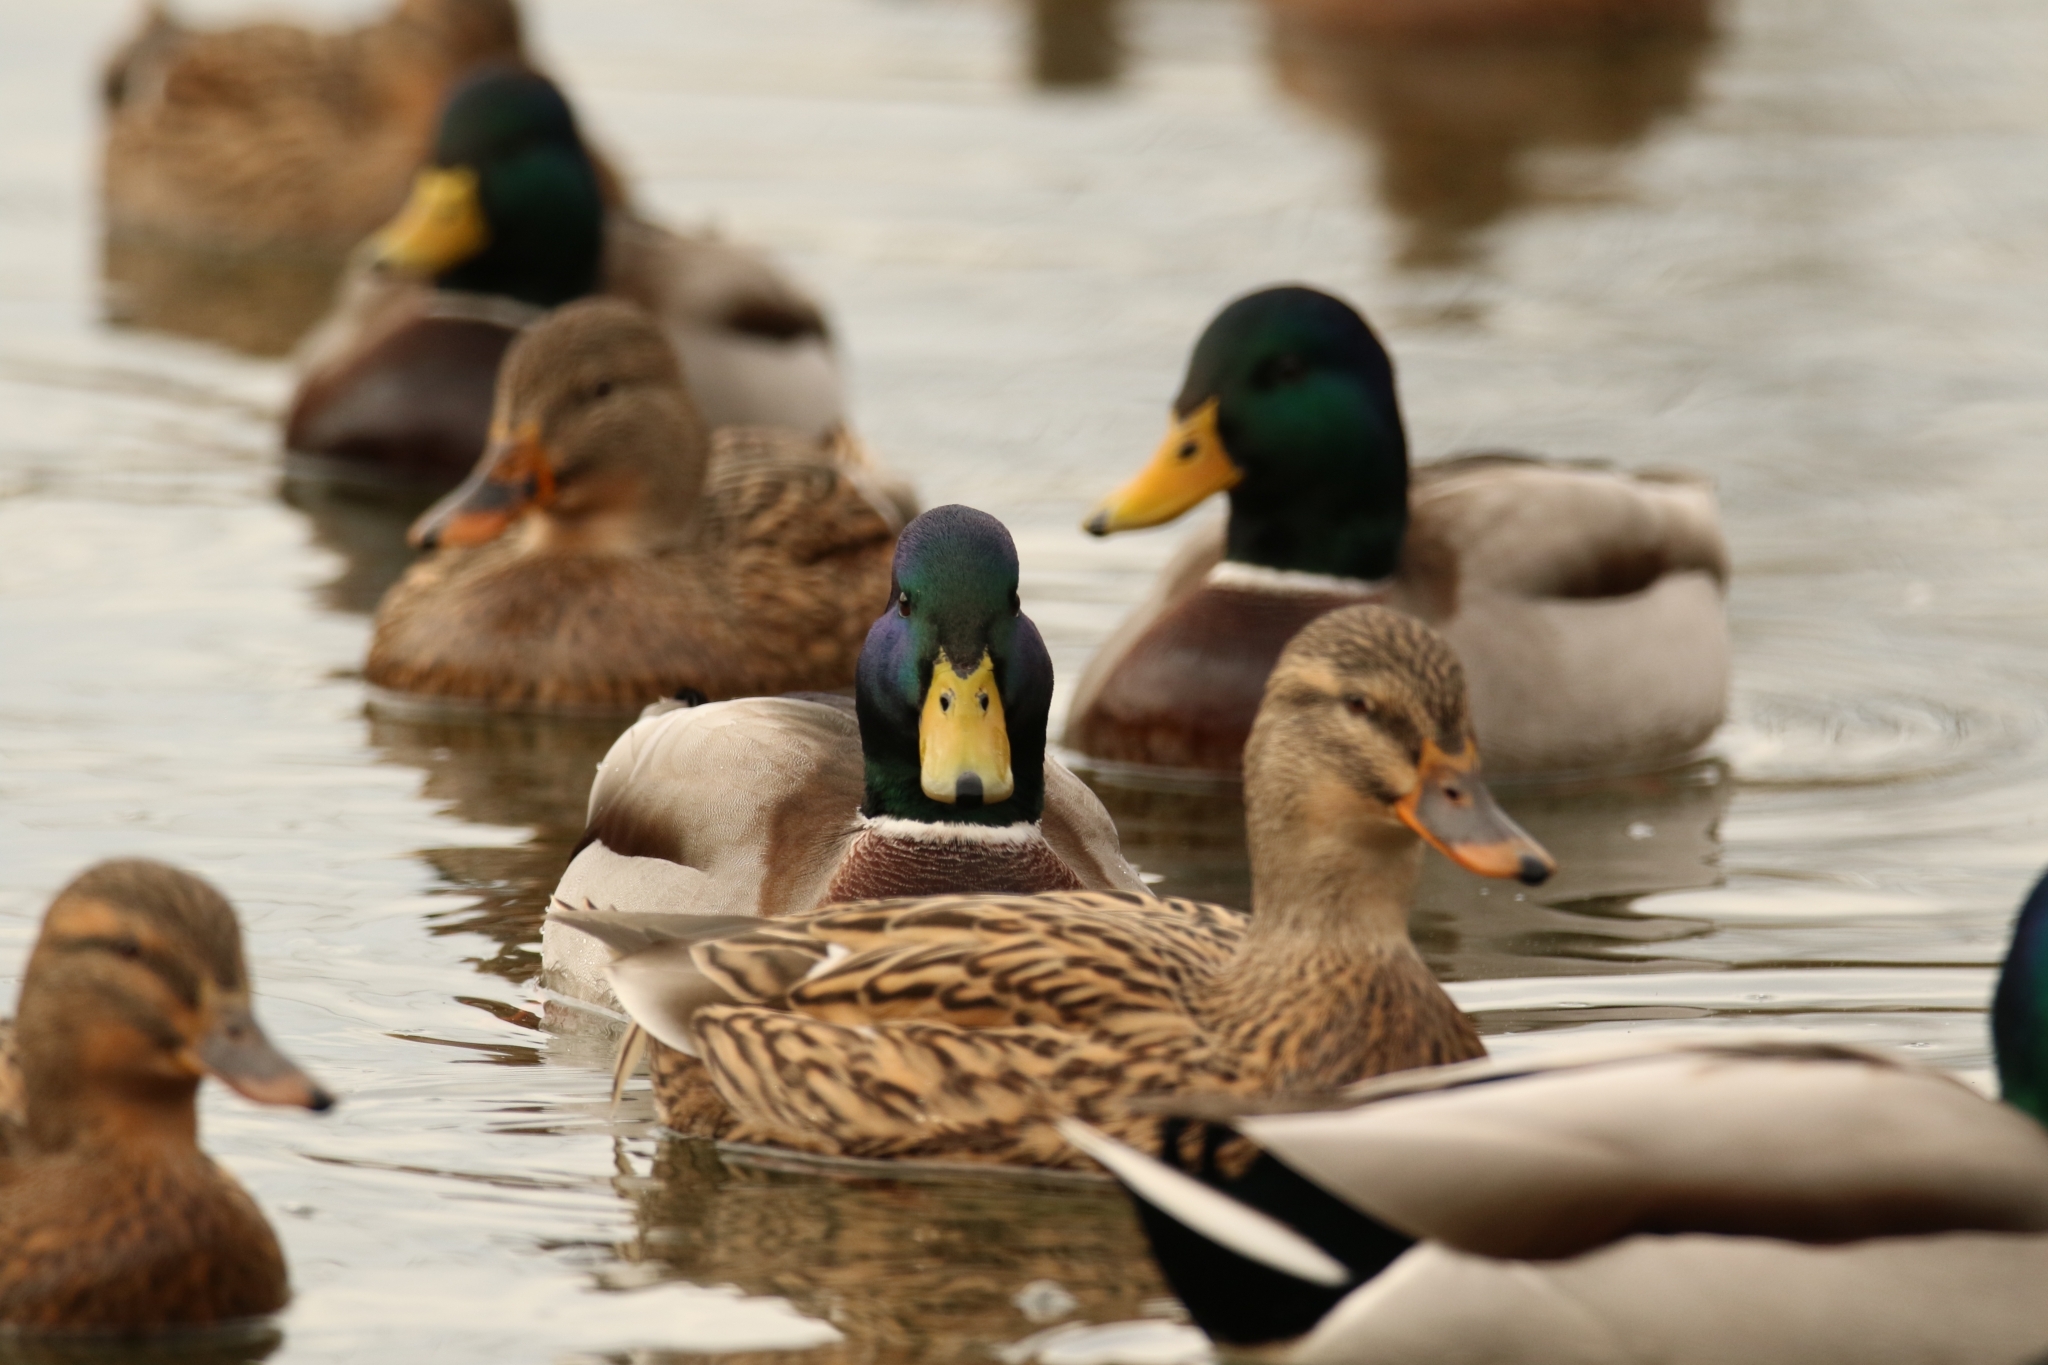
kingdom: Animalia
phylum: Chordata
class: Aves
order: Anseriformes
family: Anatidae
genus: Anas
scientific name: Anas platyrhynchos
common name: Mallard
